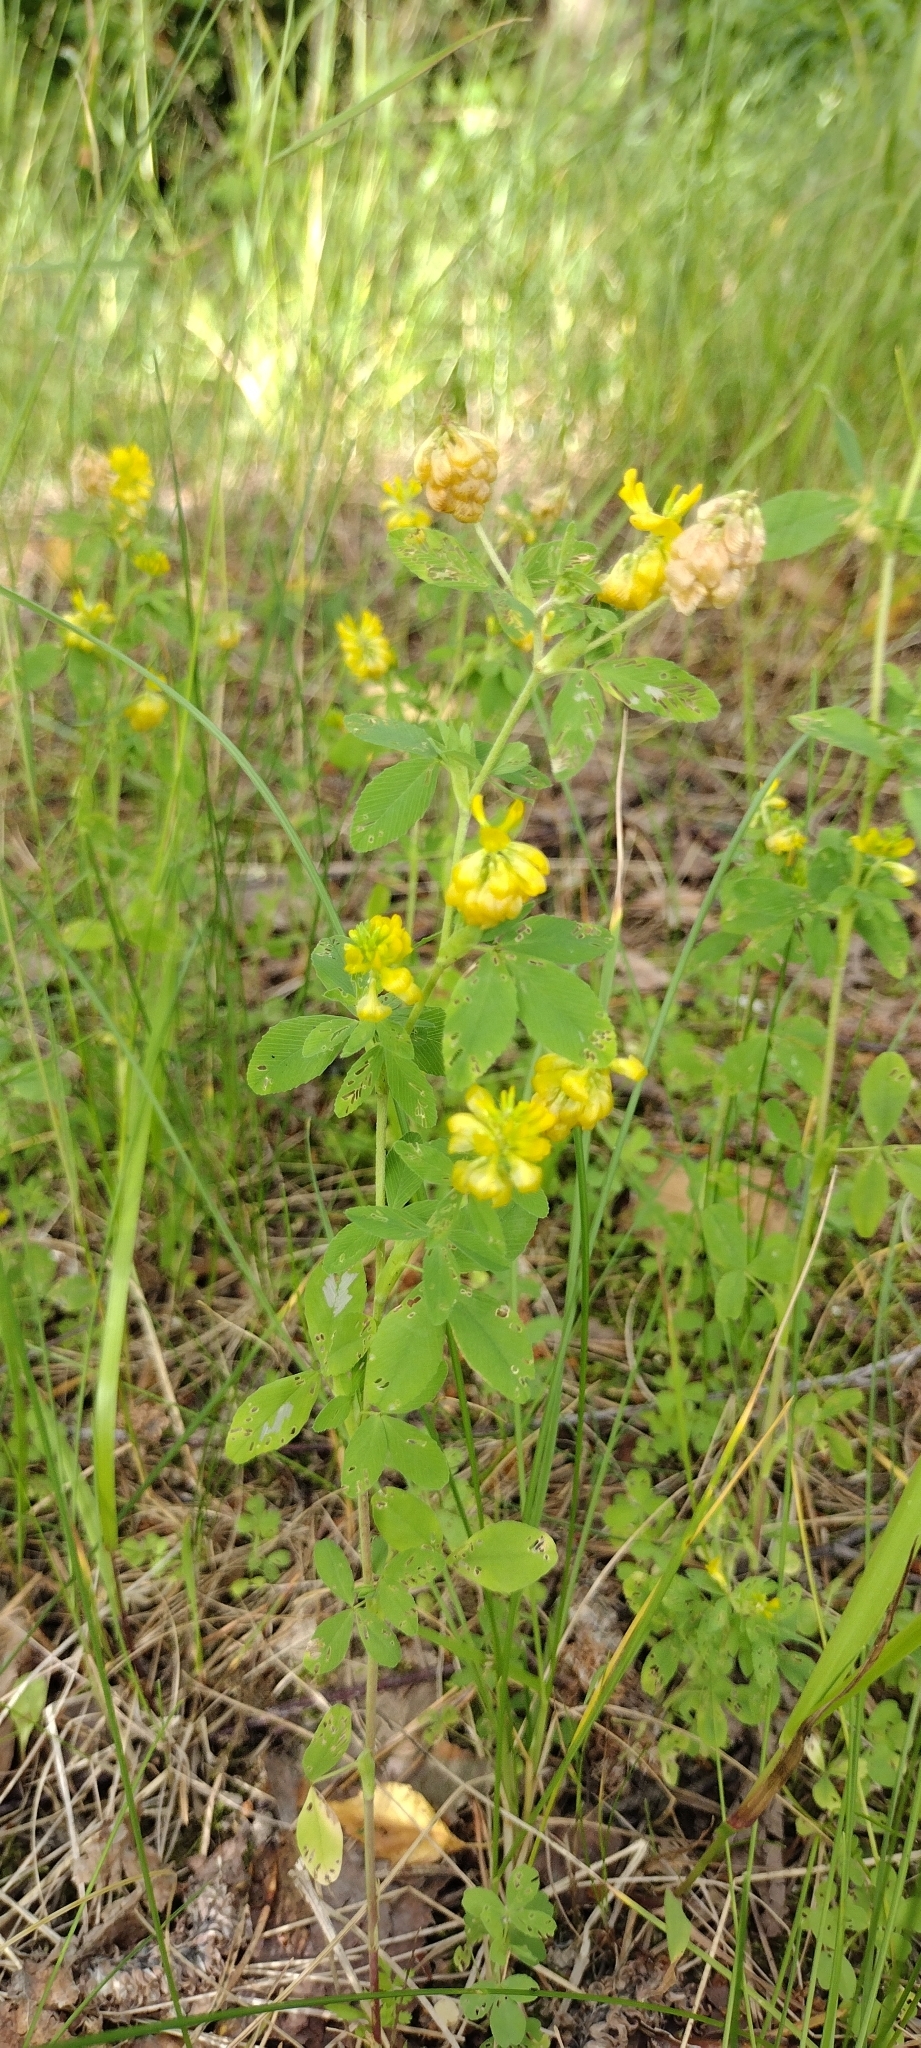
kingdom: Plantae
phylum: Tracheophyta
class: Magnoliopsida
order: Fabales
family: Fabaceae
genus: Trifolium
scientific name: Trifolium aureum
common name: Golden clover
